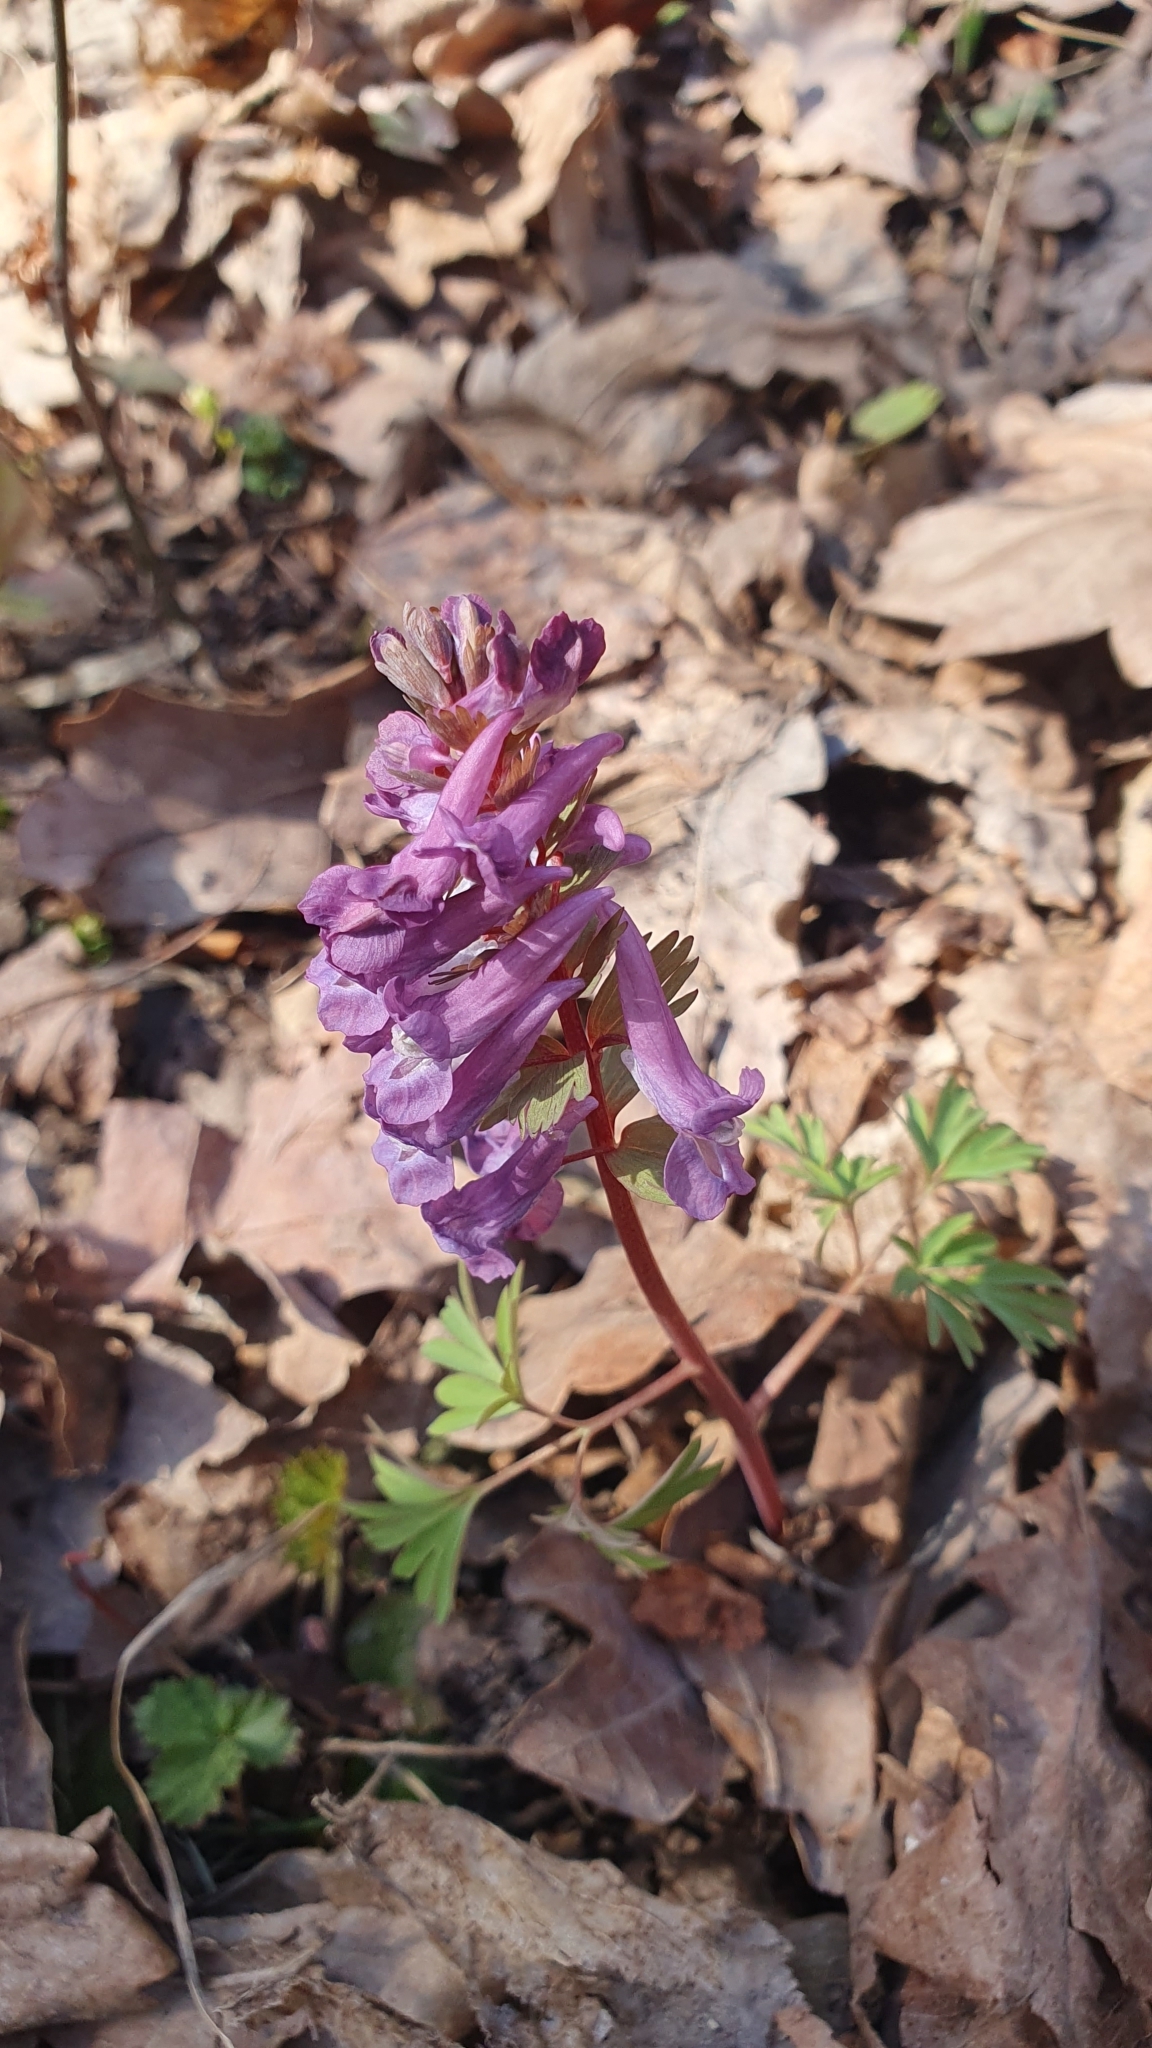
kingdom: Plantae
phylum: Tracheophyta
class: Magnoliopsida
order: Ranunculales
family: Papaveraceae
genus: Corydalis
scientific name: Corydalis solida
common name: Bird-in-a-bush
